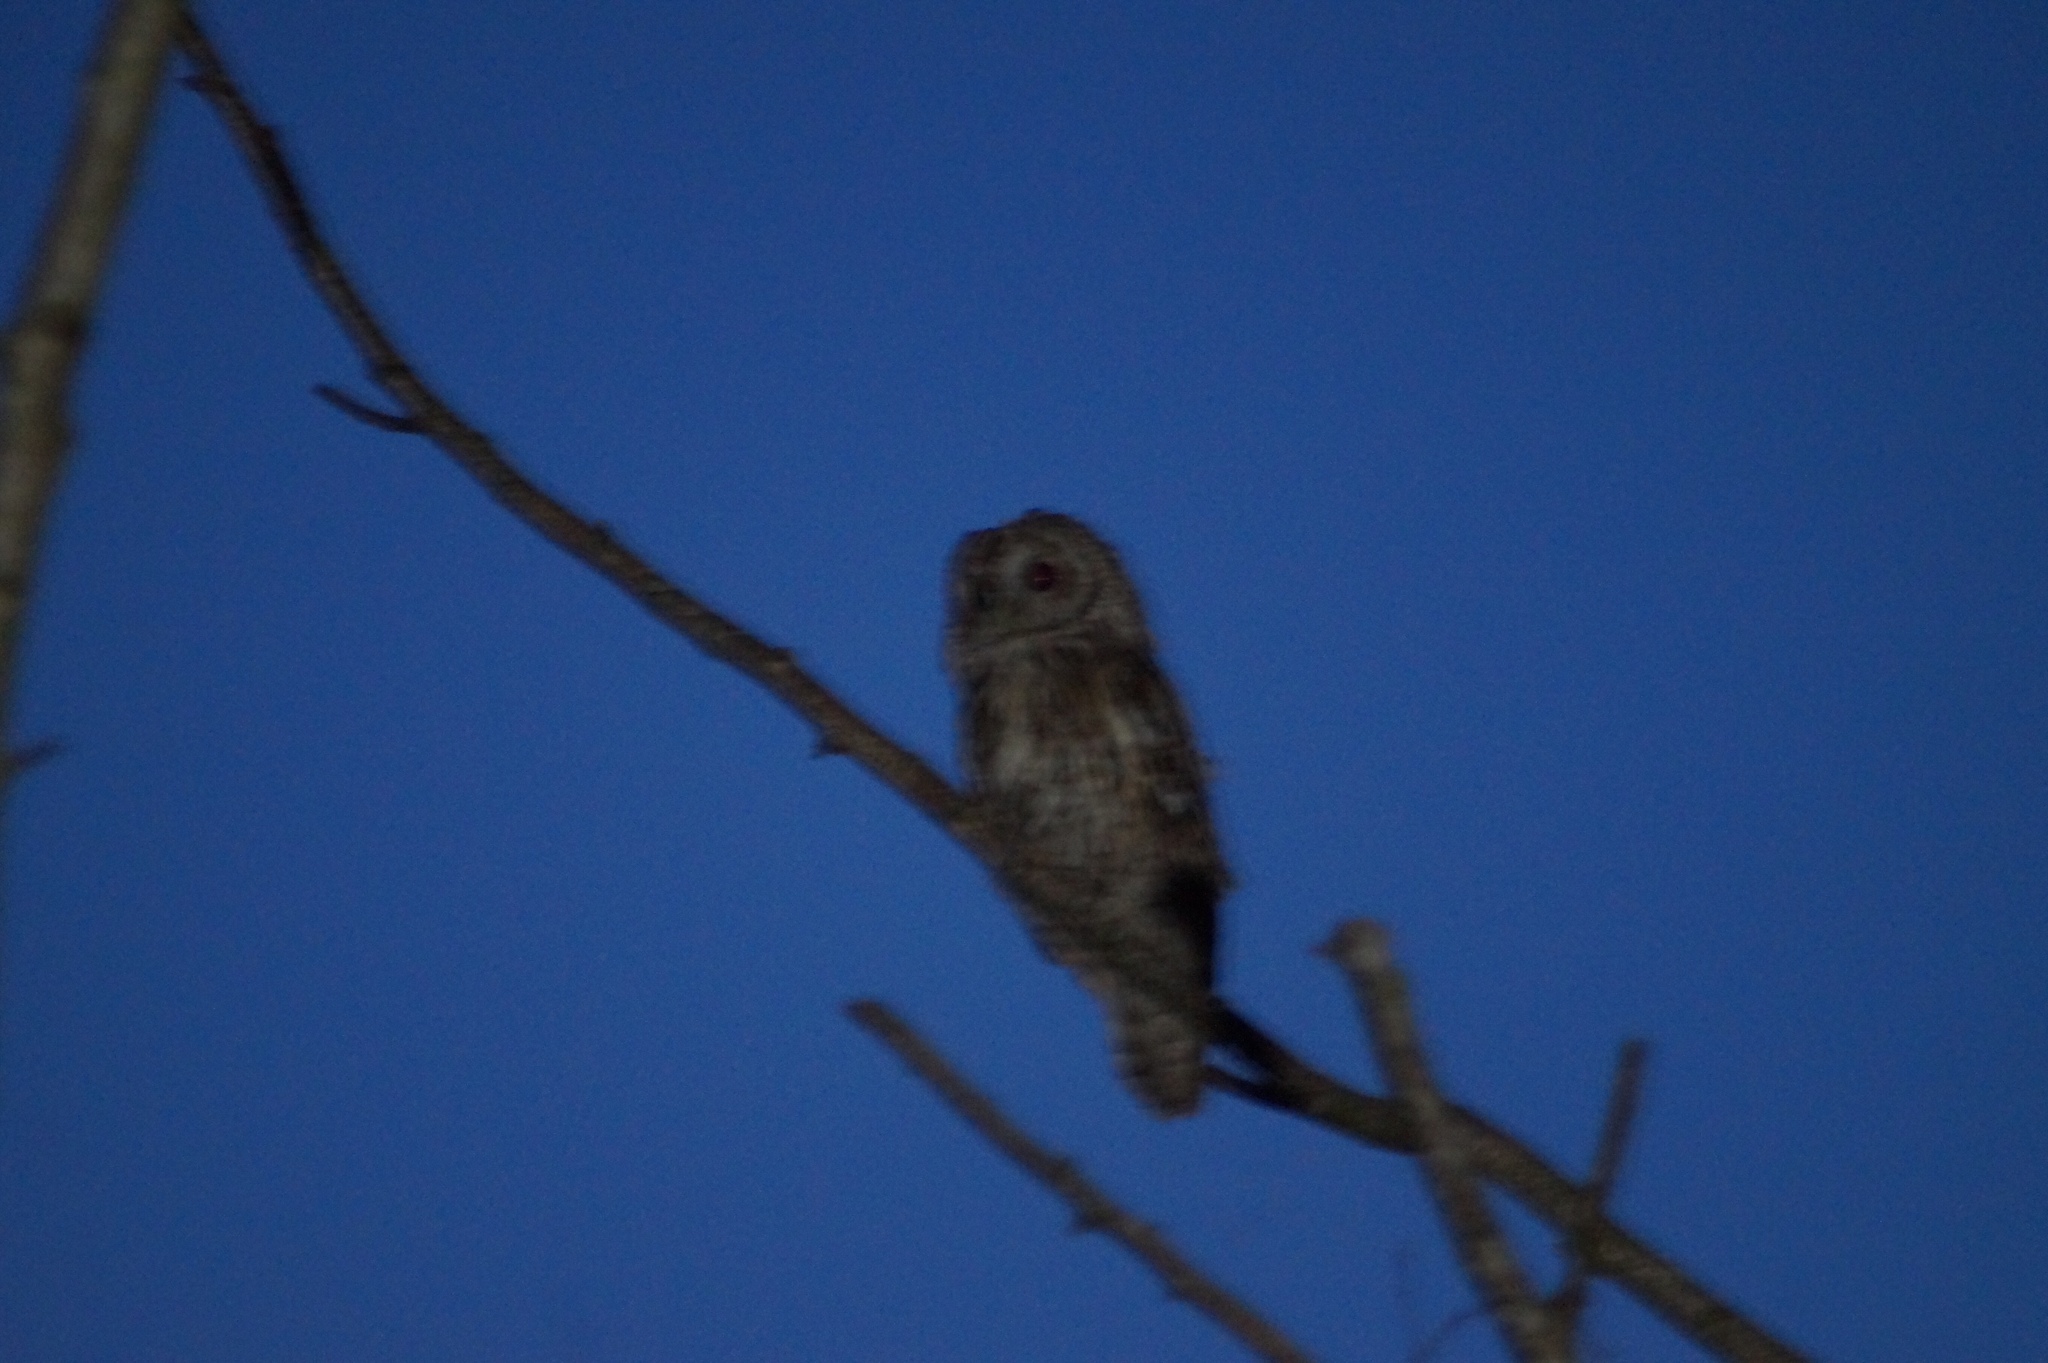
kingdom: Animalia
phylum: Chordata
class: Aves
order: Strigiformes
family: Strigidae
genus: Strix
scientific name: Strix aluco
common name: Tawny owl
